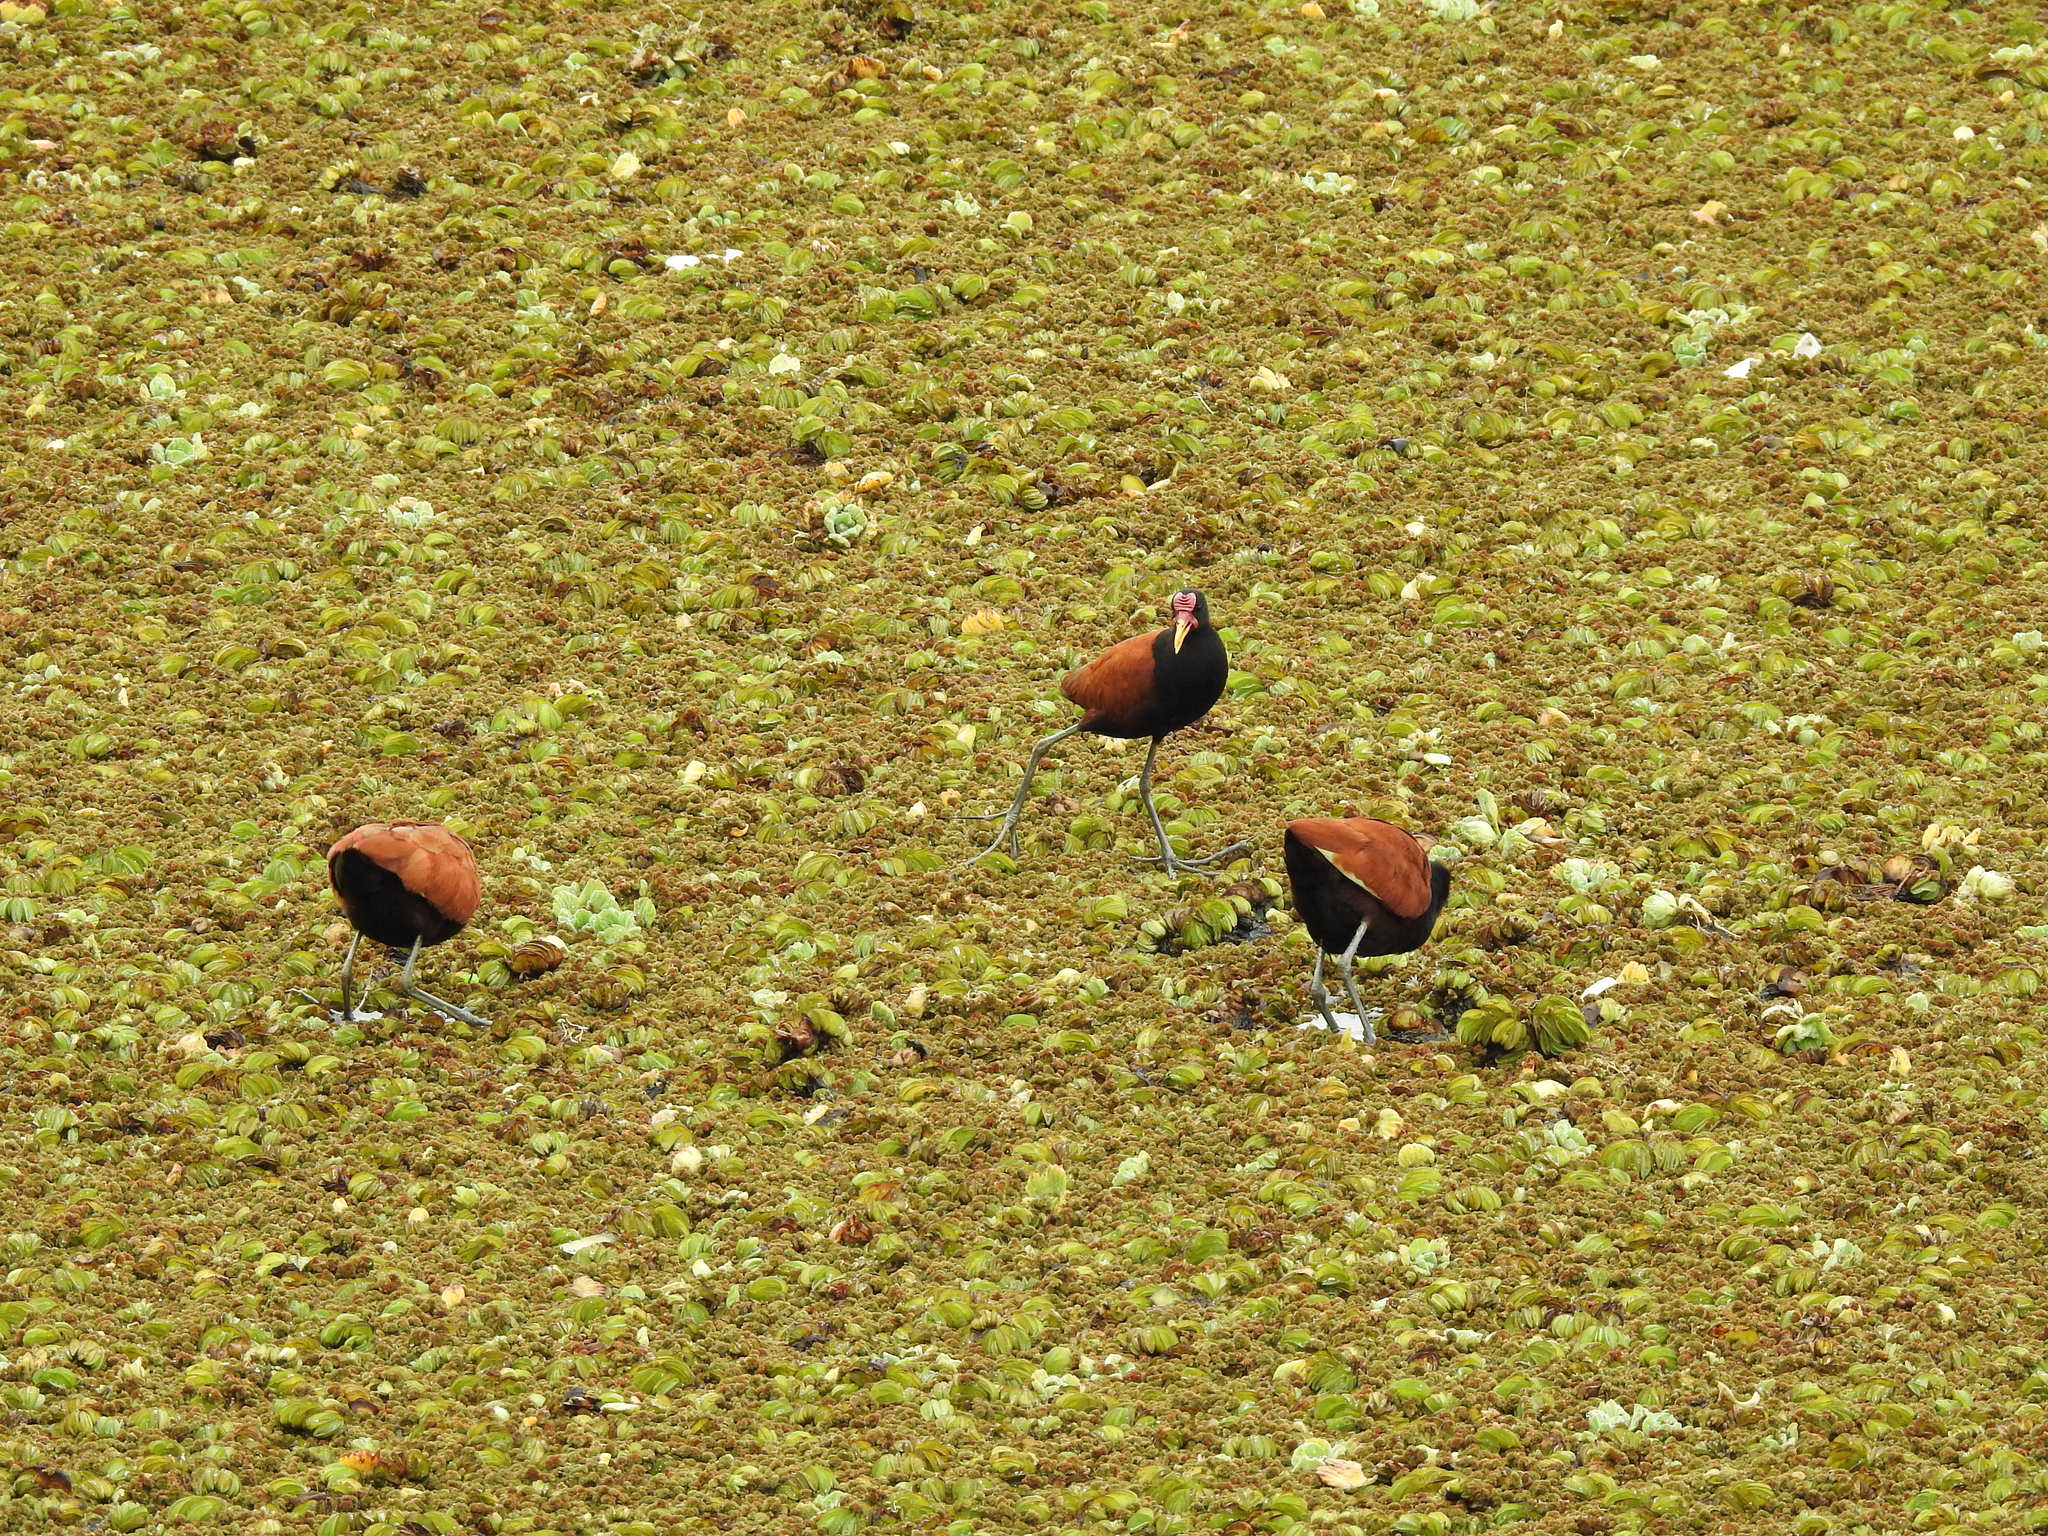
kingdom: Animalia
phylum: Chordata
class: Aves
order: Charadriiformes
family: Jacanidae
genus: Jacana
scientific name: Jacana jacana
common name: Wattled jacana
